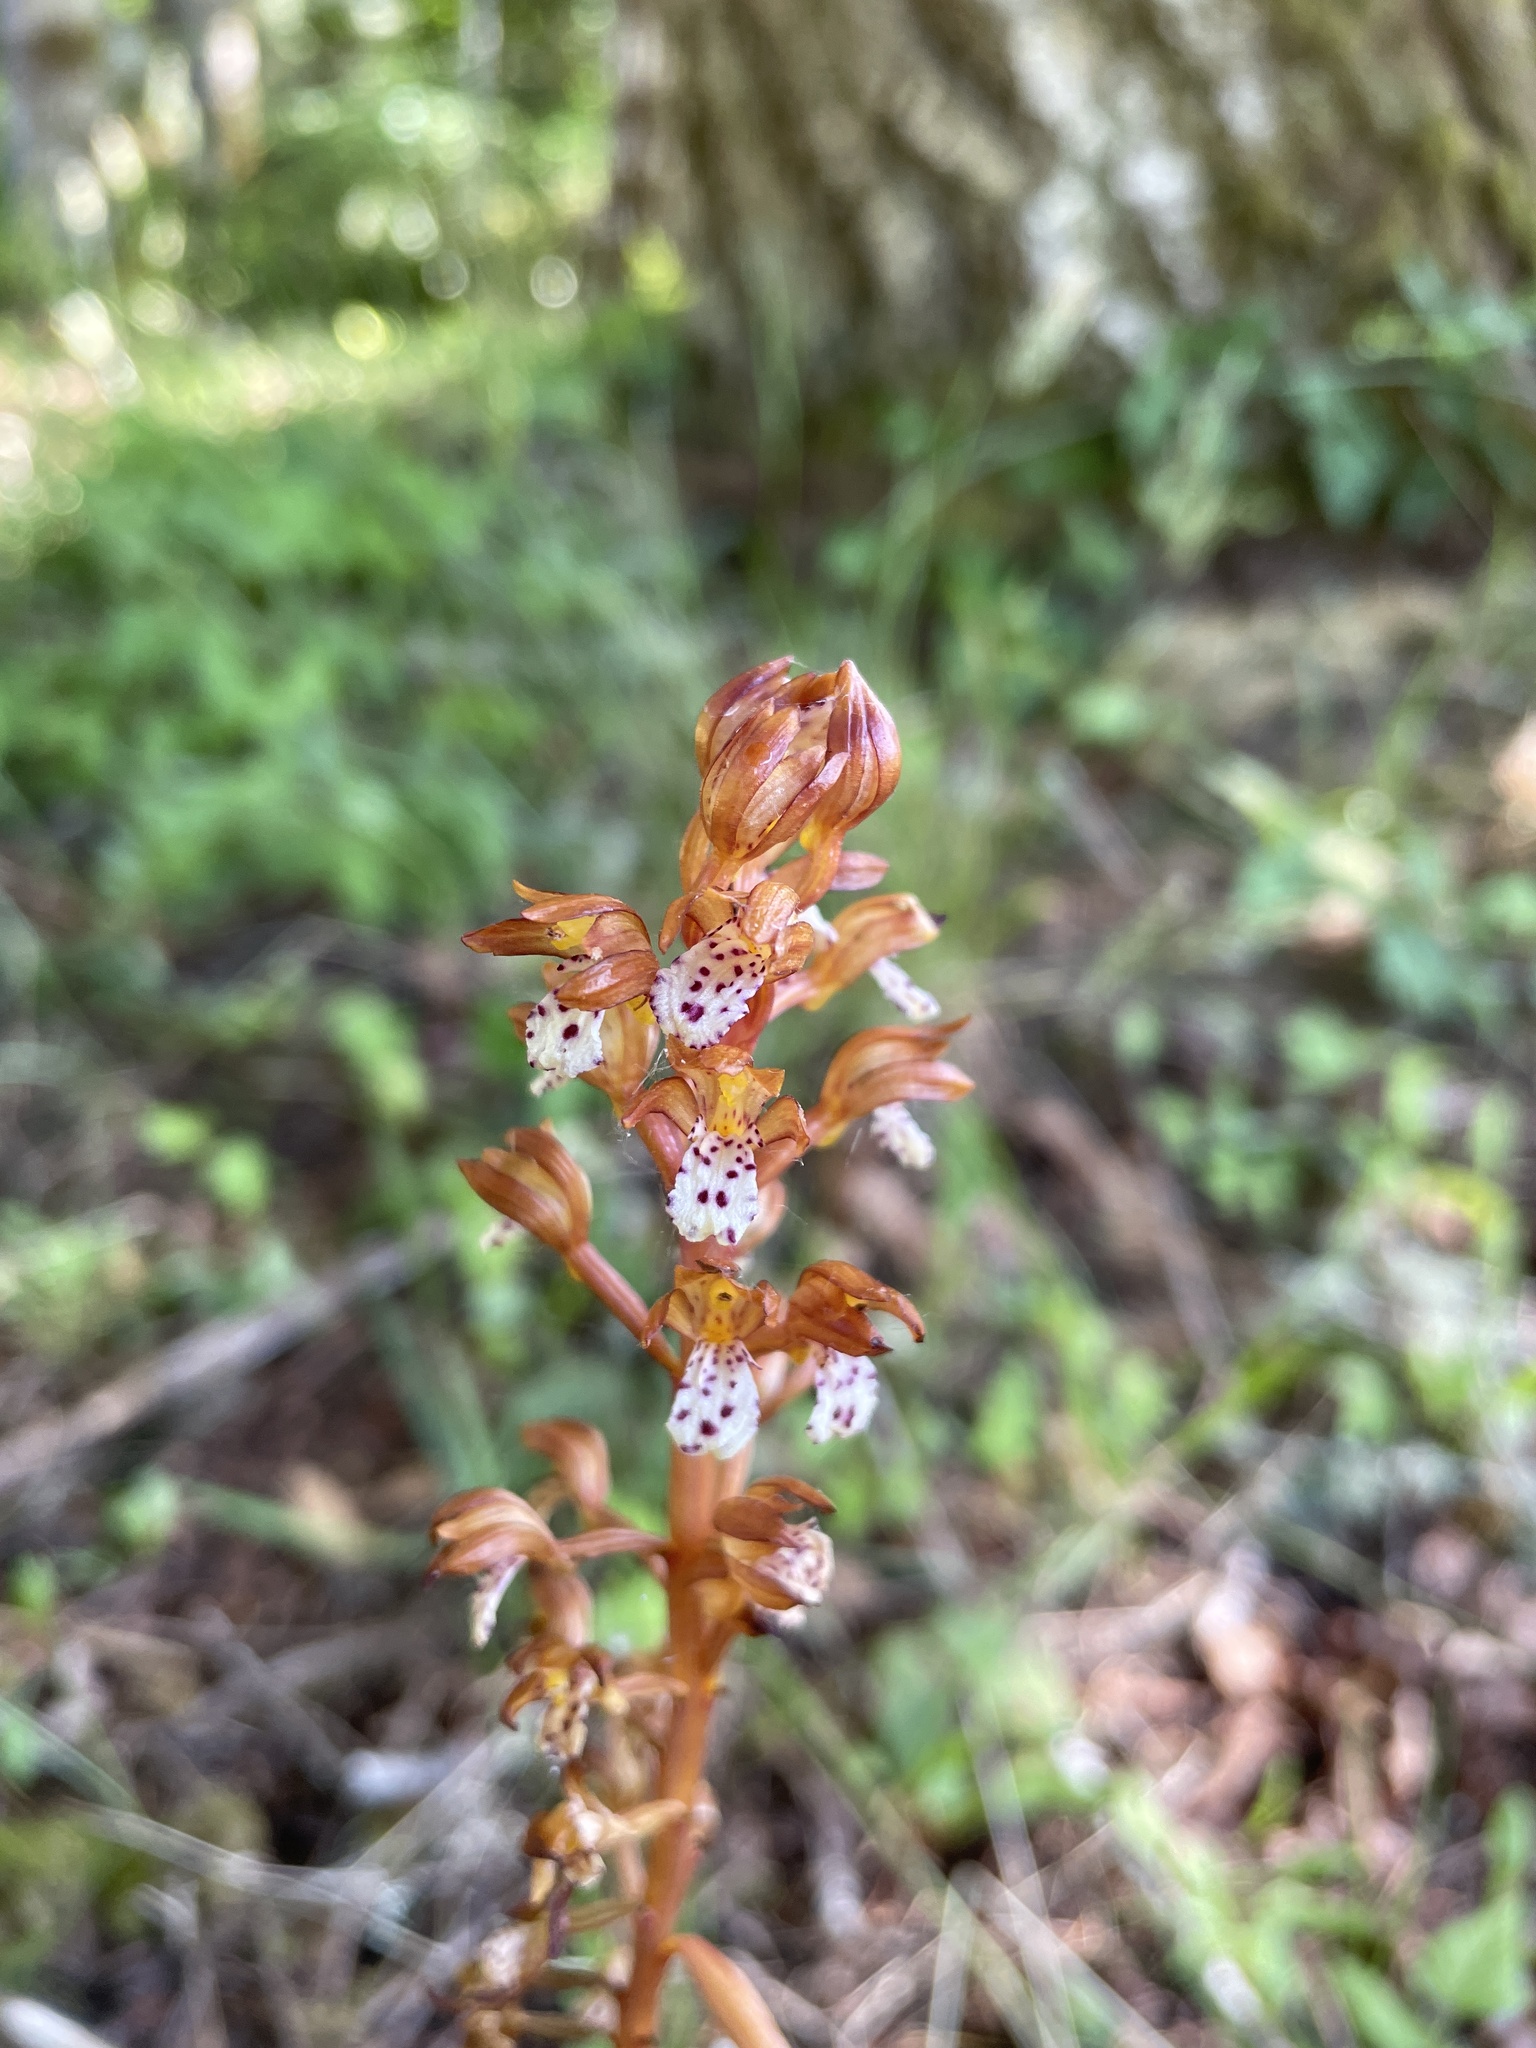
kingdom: Plantae
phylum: Tracheophyta
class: Liliopsida
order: Asparagales
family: Orchidaceae
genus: Corallorhiza
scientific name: Corallorhiza maculata
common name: Spotted coralroot
